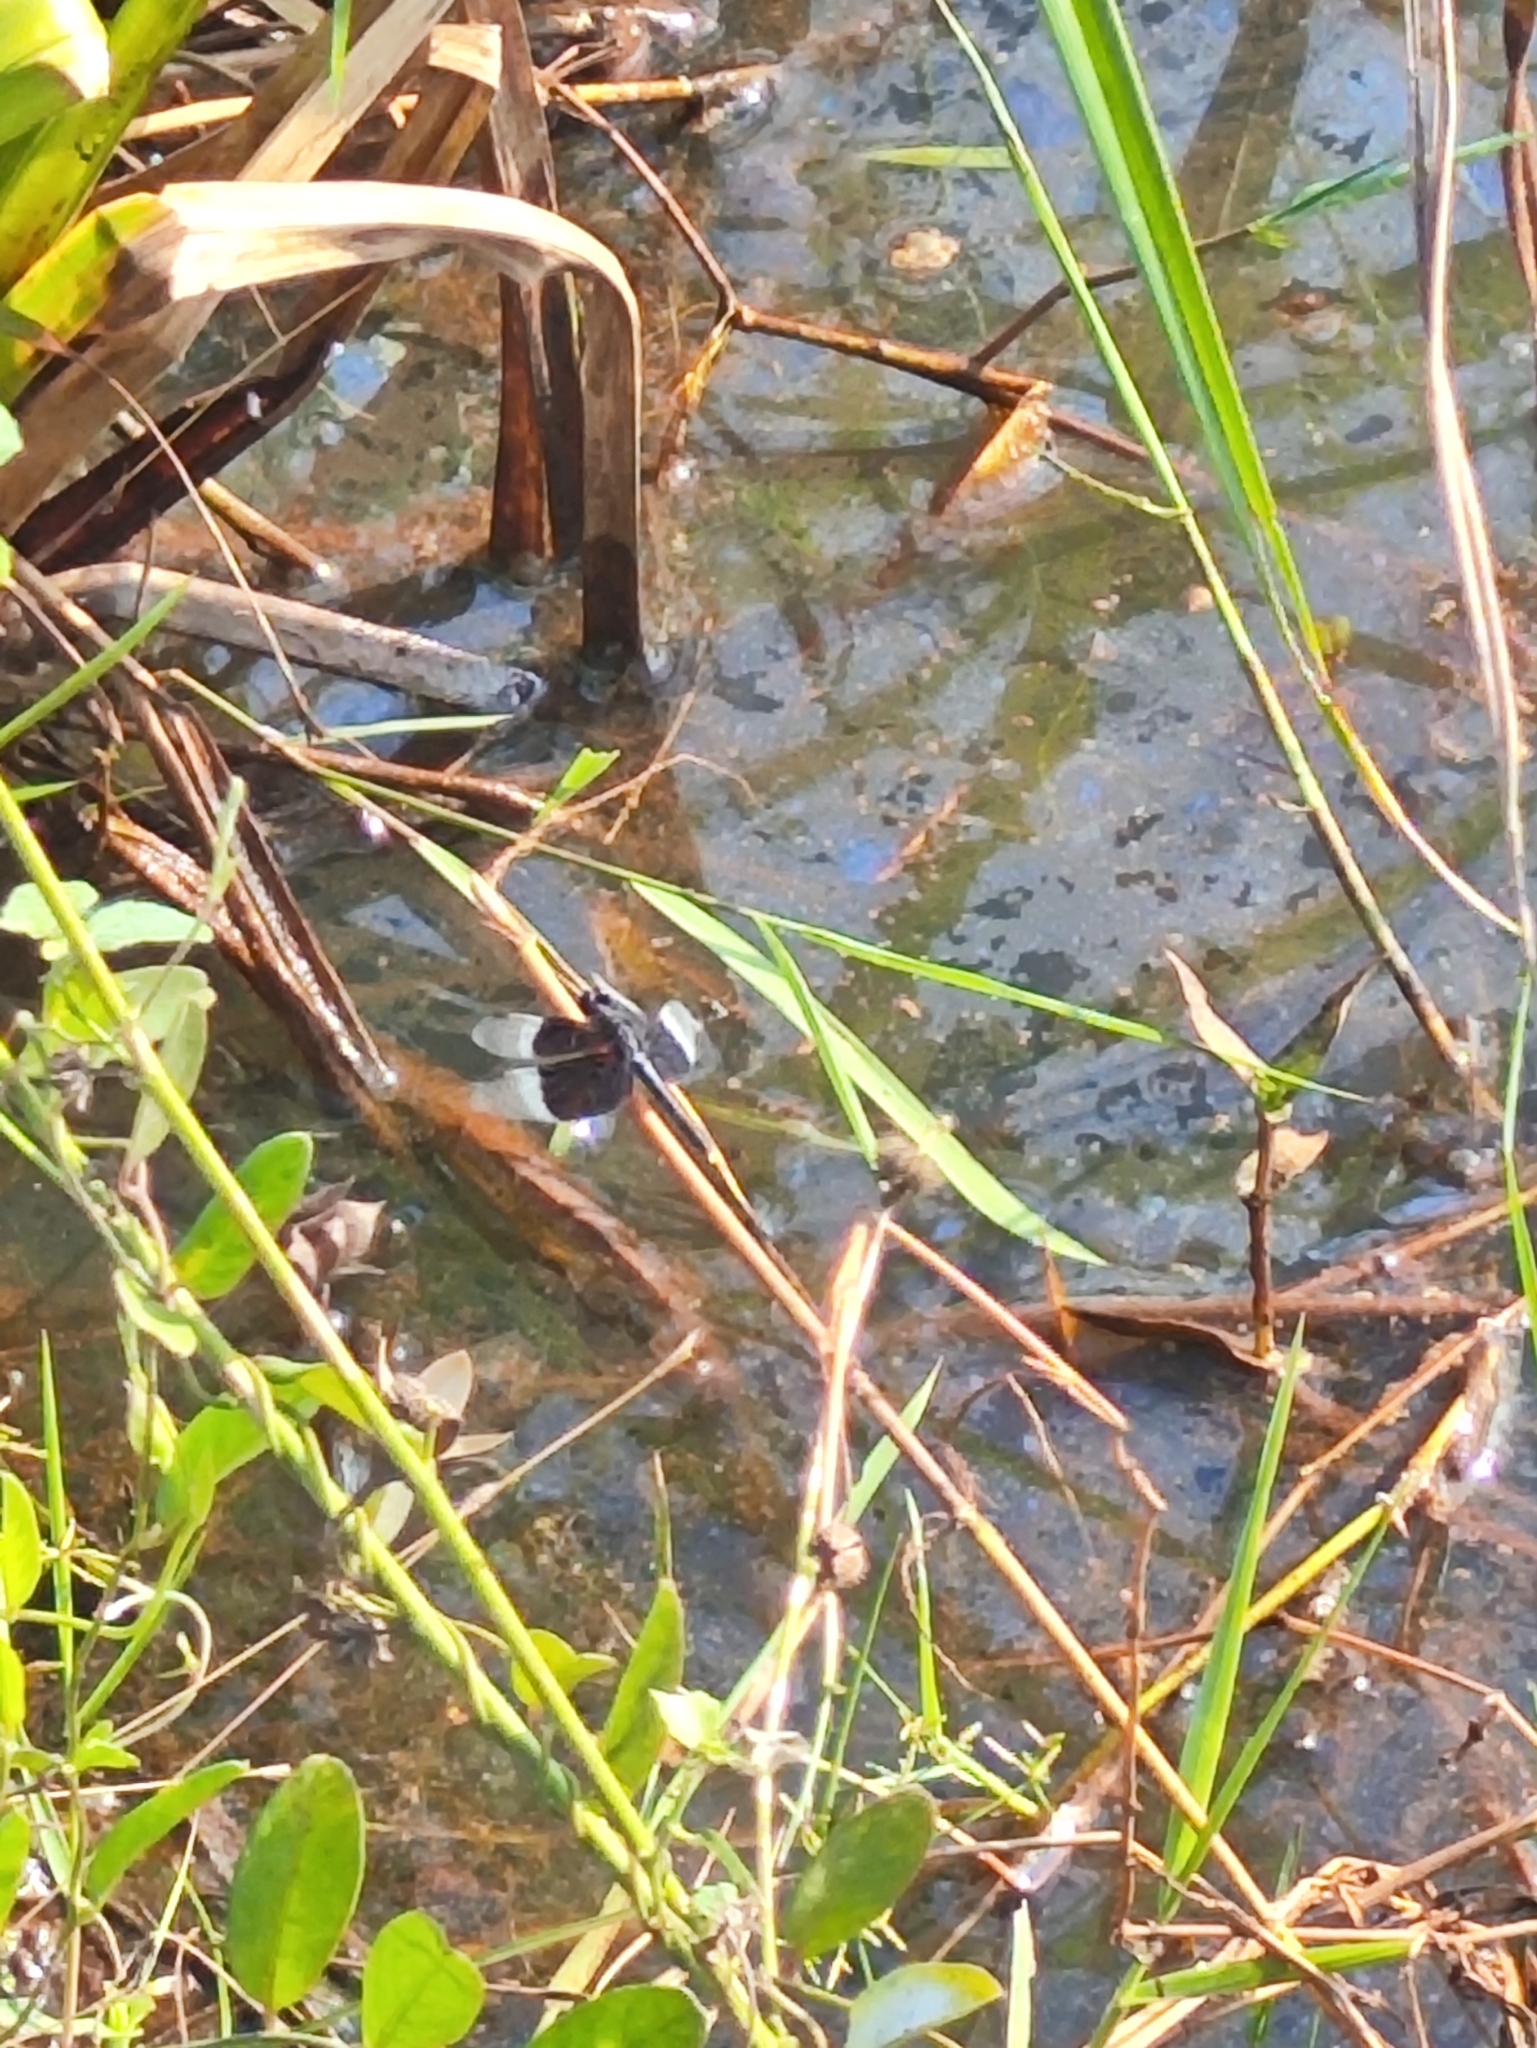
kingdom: Animalia
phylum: Arthropoda
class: Insecta
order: Odonata
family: Libellulidae
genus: Neurothemis
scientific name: Neurothemis tullia
